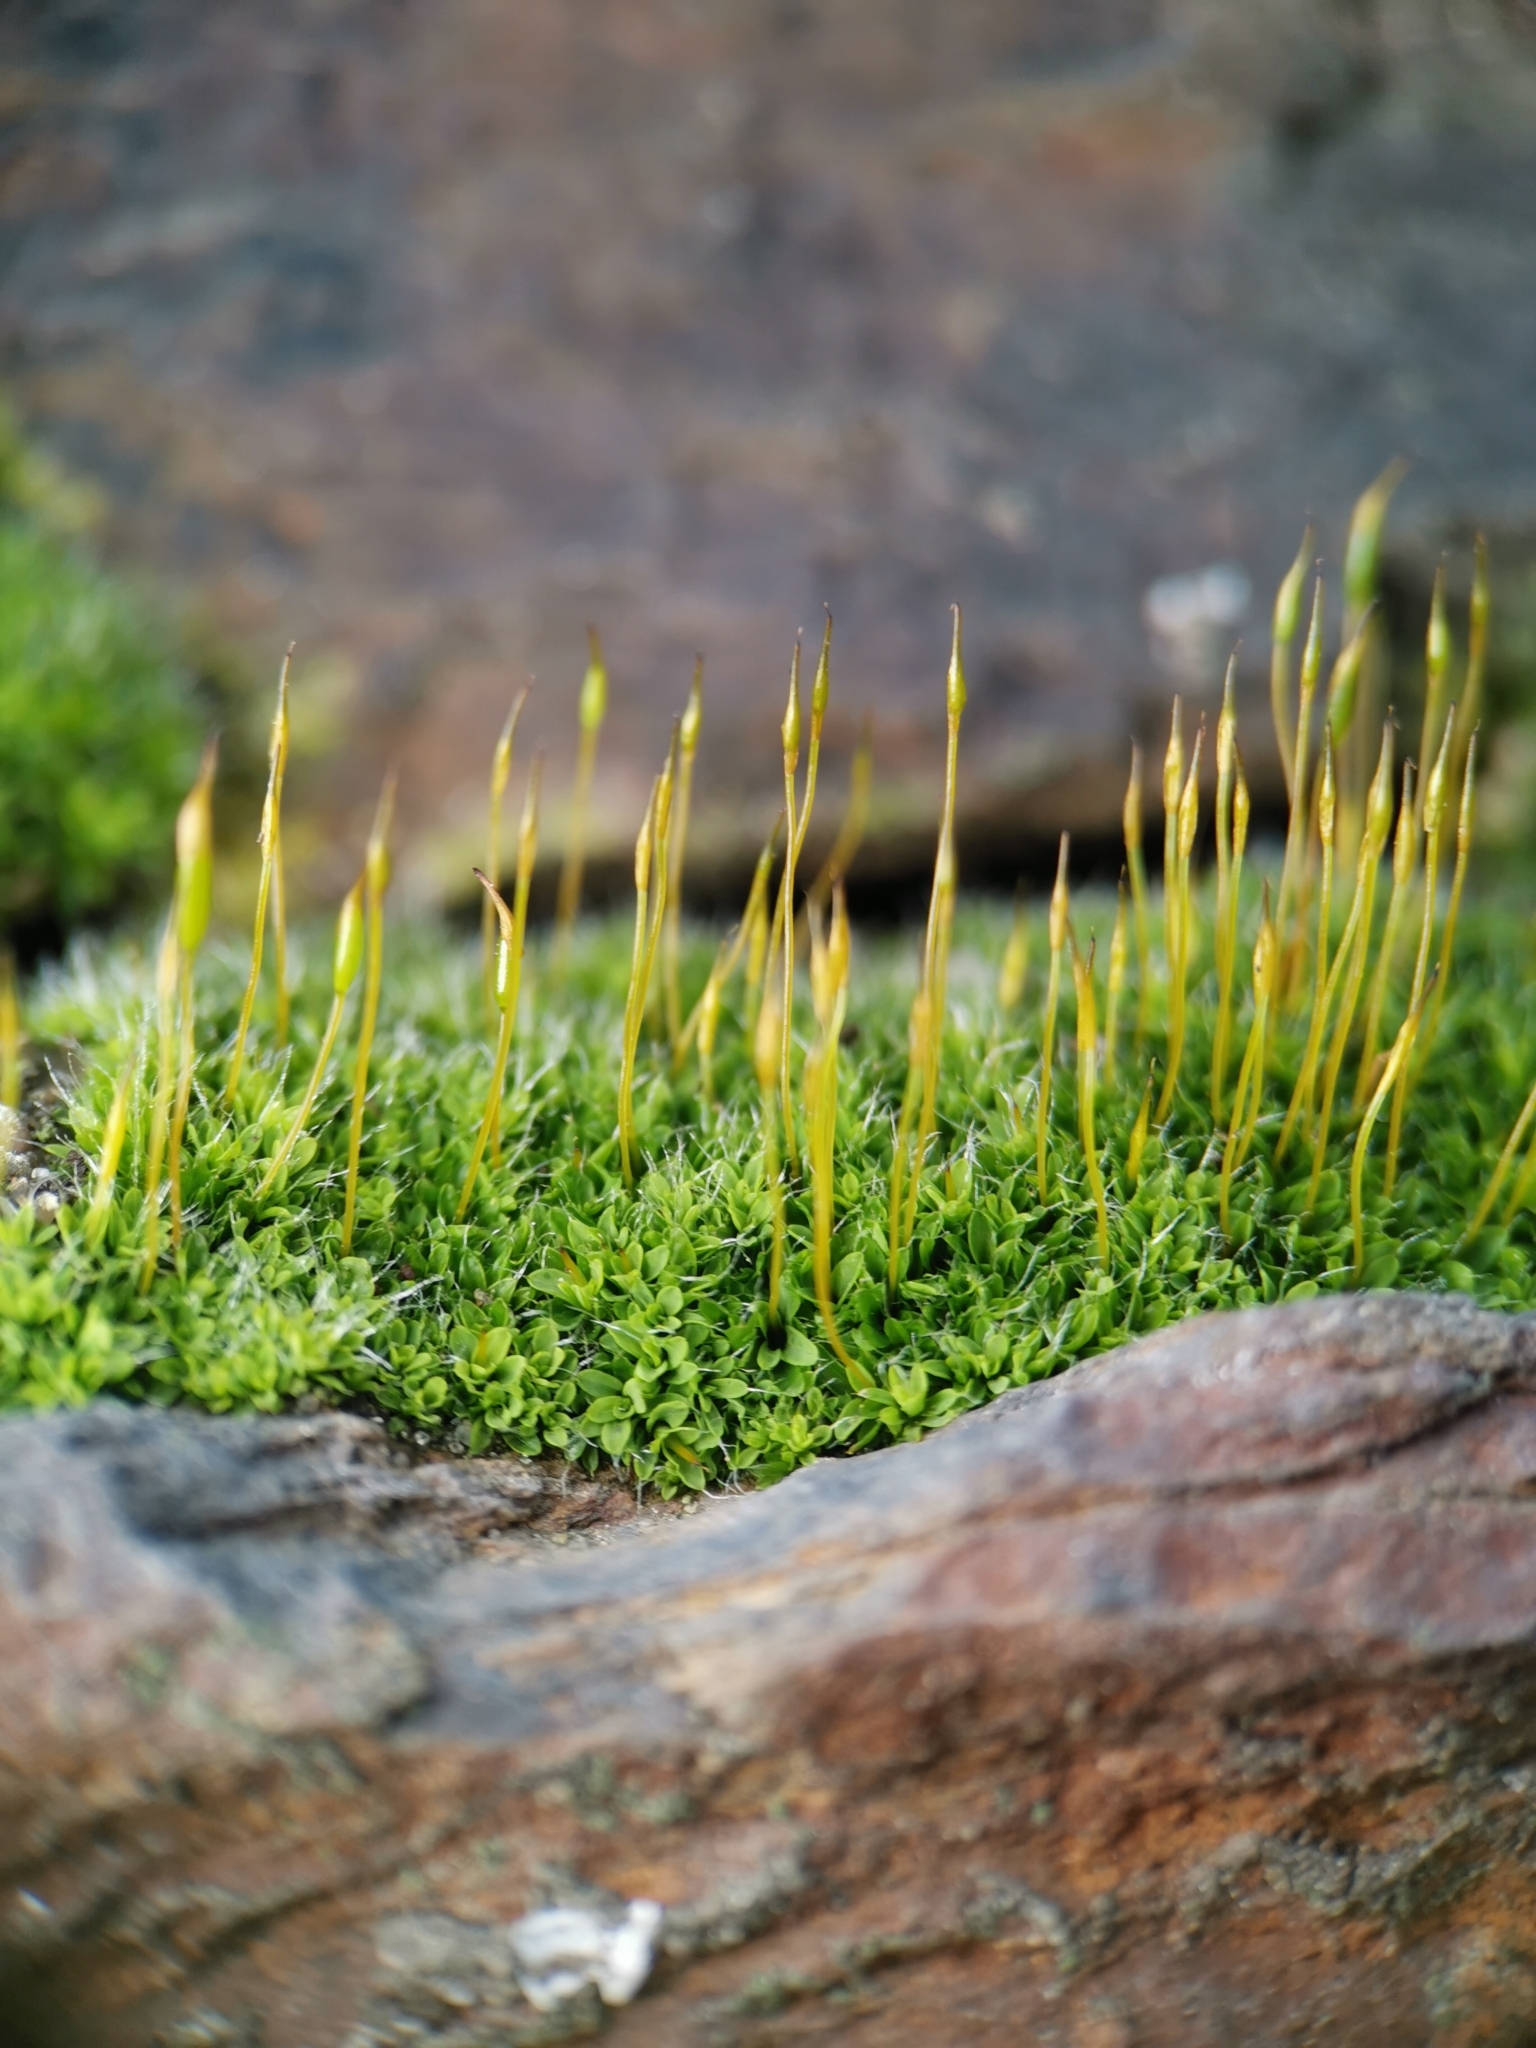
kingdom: Plantae
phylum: Bryophyta
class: Bryopsida
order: Pottiales
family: Pottiaceae
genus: Tortula
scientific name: Tortula muralis
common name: Wall screw-moss
